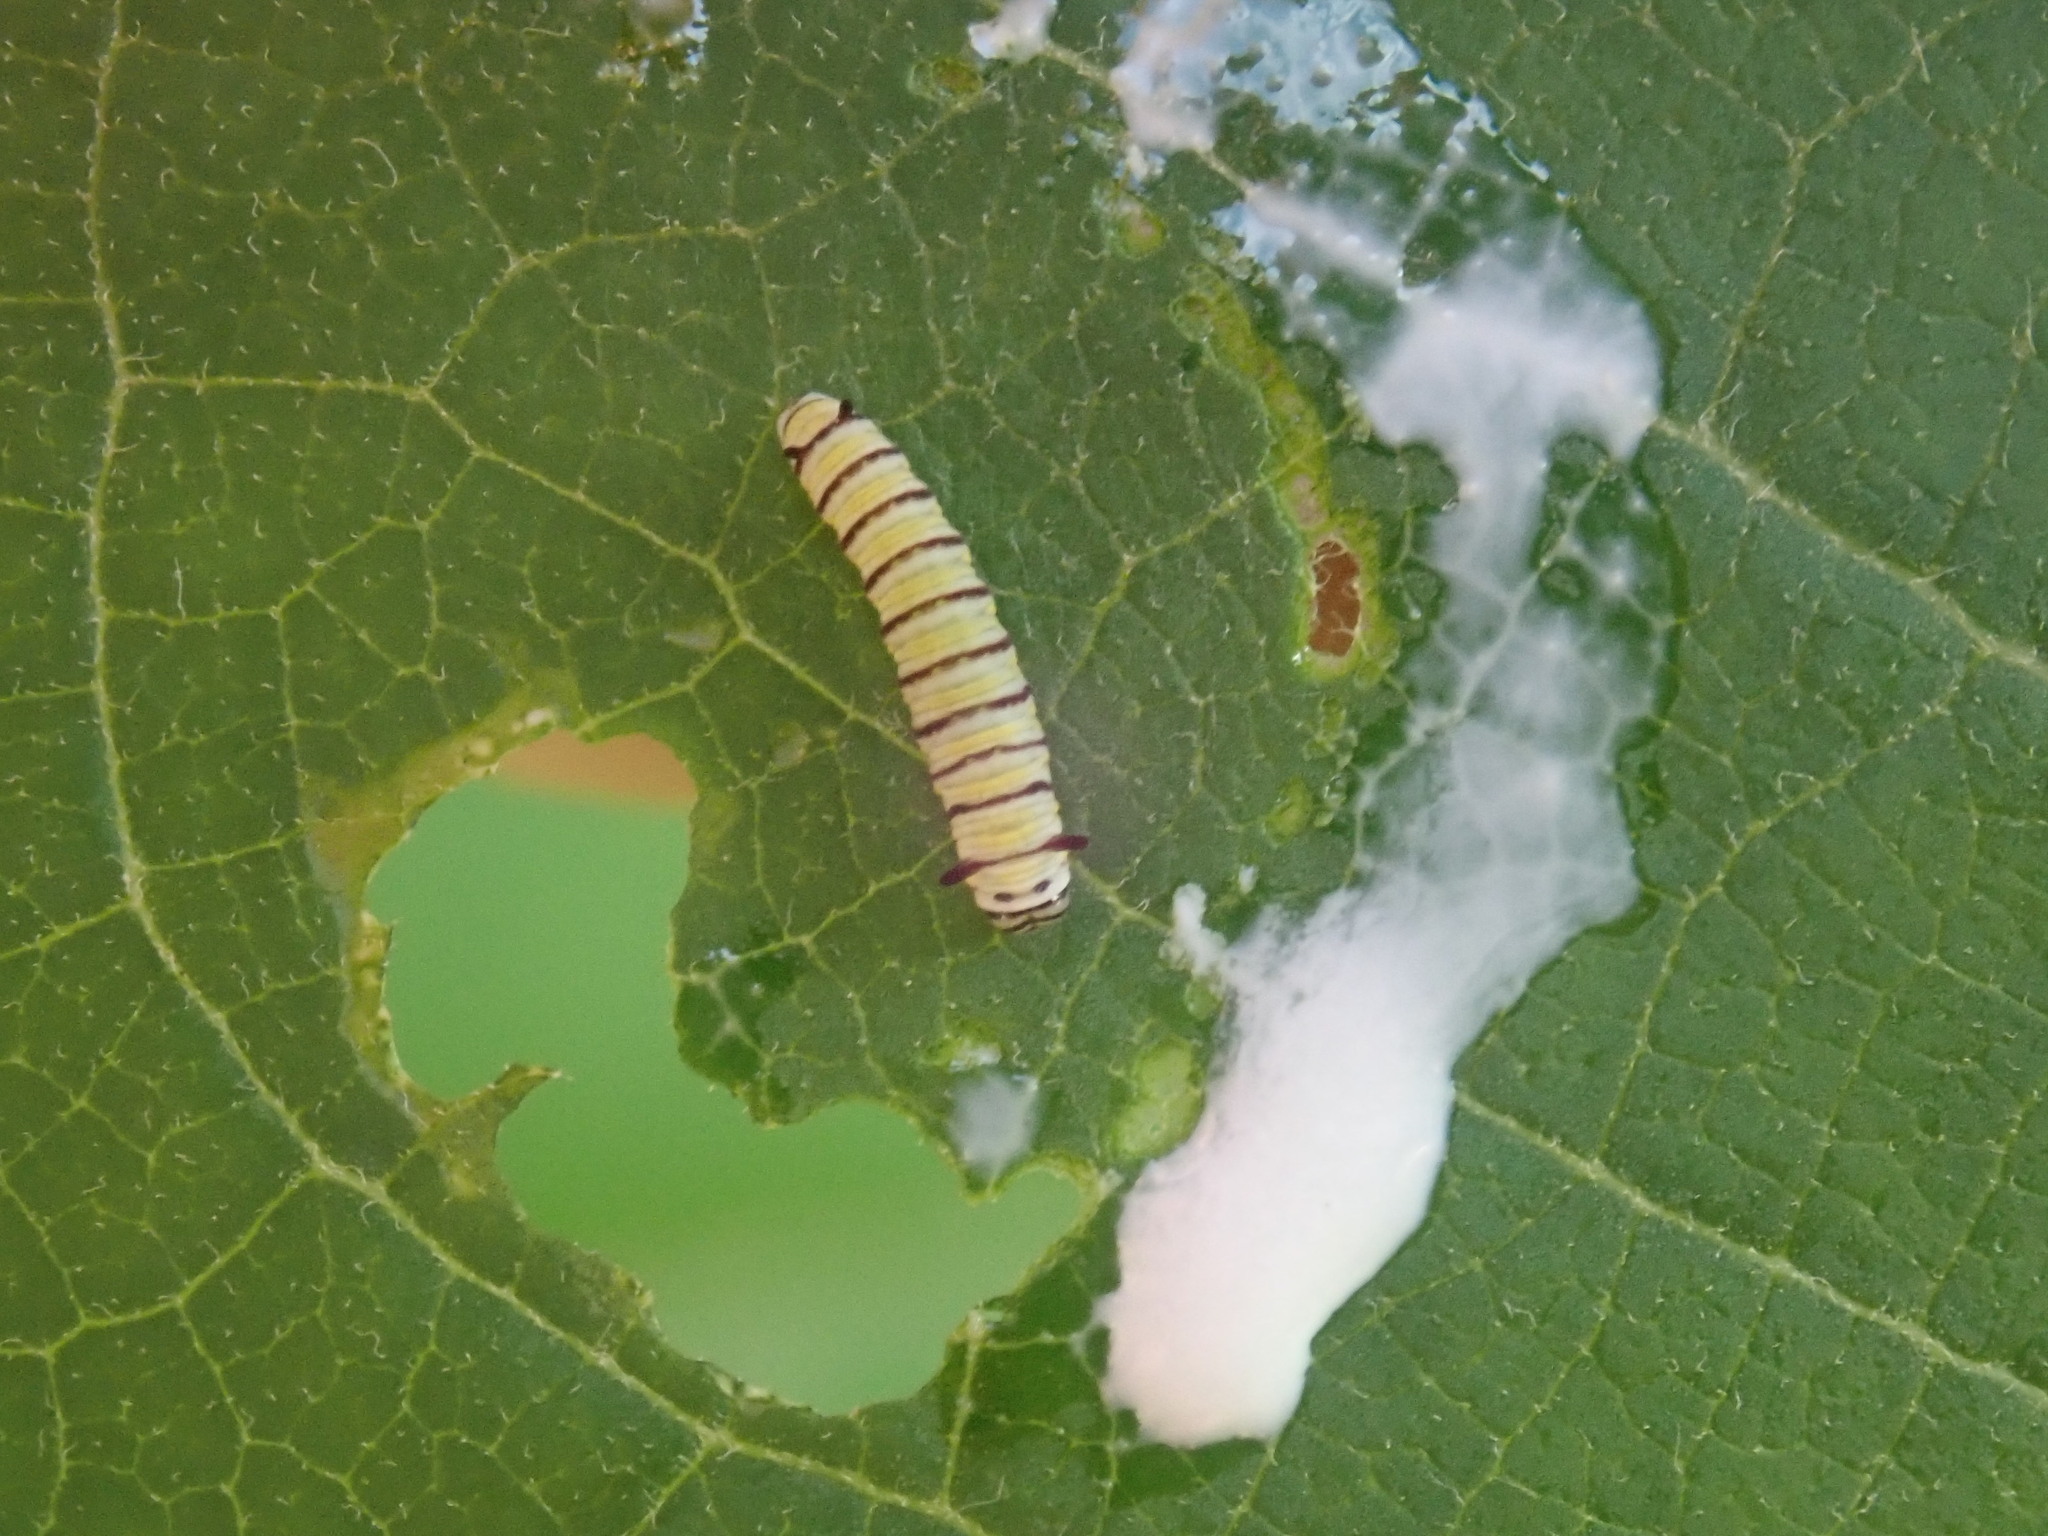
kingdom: Animalia
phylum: Arthropoda
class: Insecta
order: Lepidoptera
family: Nymphalidae
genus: Danaus
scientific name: Danaus plexippus
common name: Monarch
